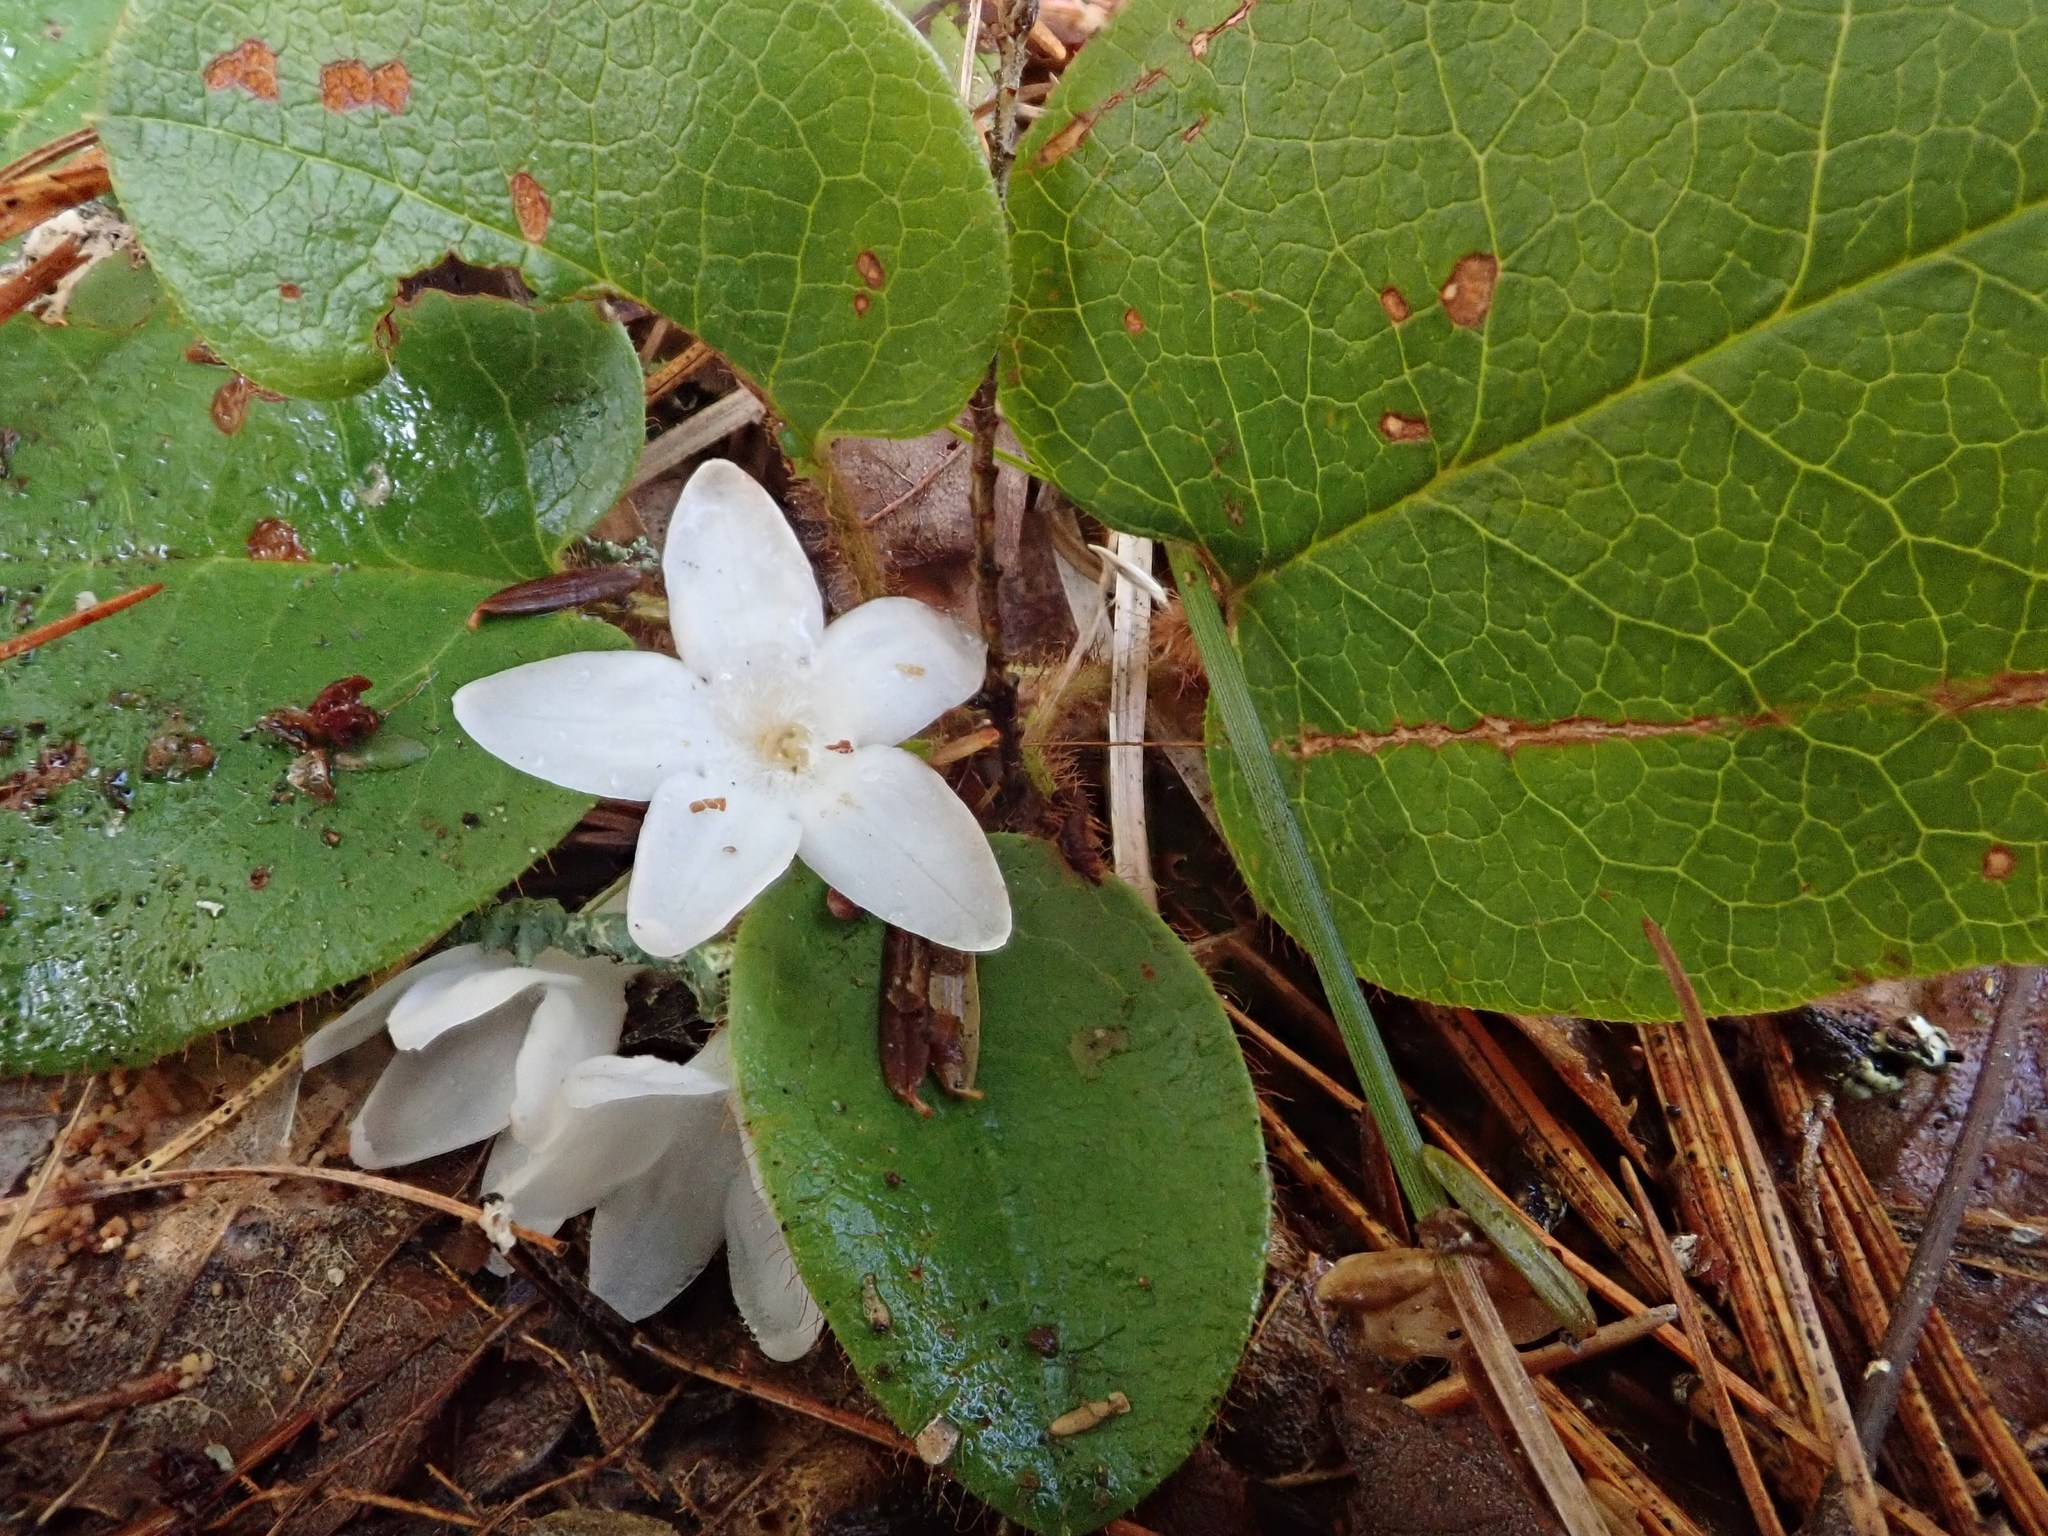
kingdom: Plantae
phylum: Tracheophyta
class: Magnoliopsida
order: Ericales
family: Ericaceae
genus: Epigaea
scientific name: Epigaea repens
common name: Gravelroot
